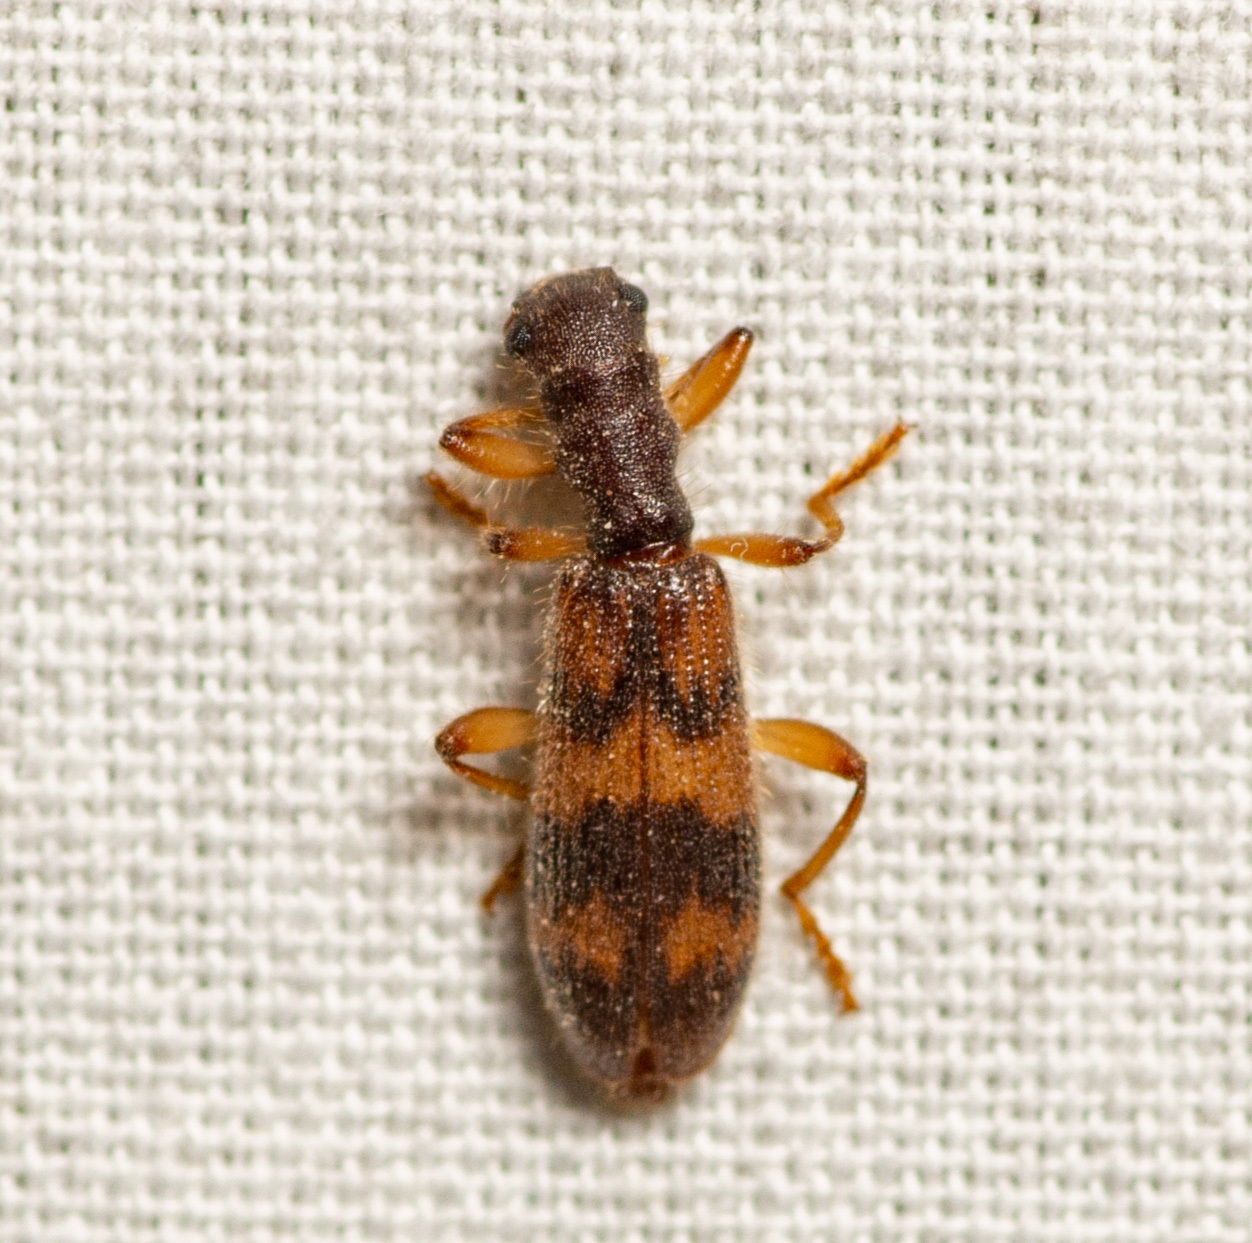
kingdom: Animalia
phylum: Arthropoda
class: Insecta
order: Coleoptera
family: Cleridae
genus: Cymatodera
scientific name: Cymatodera undulata
